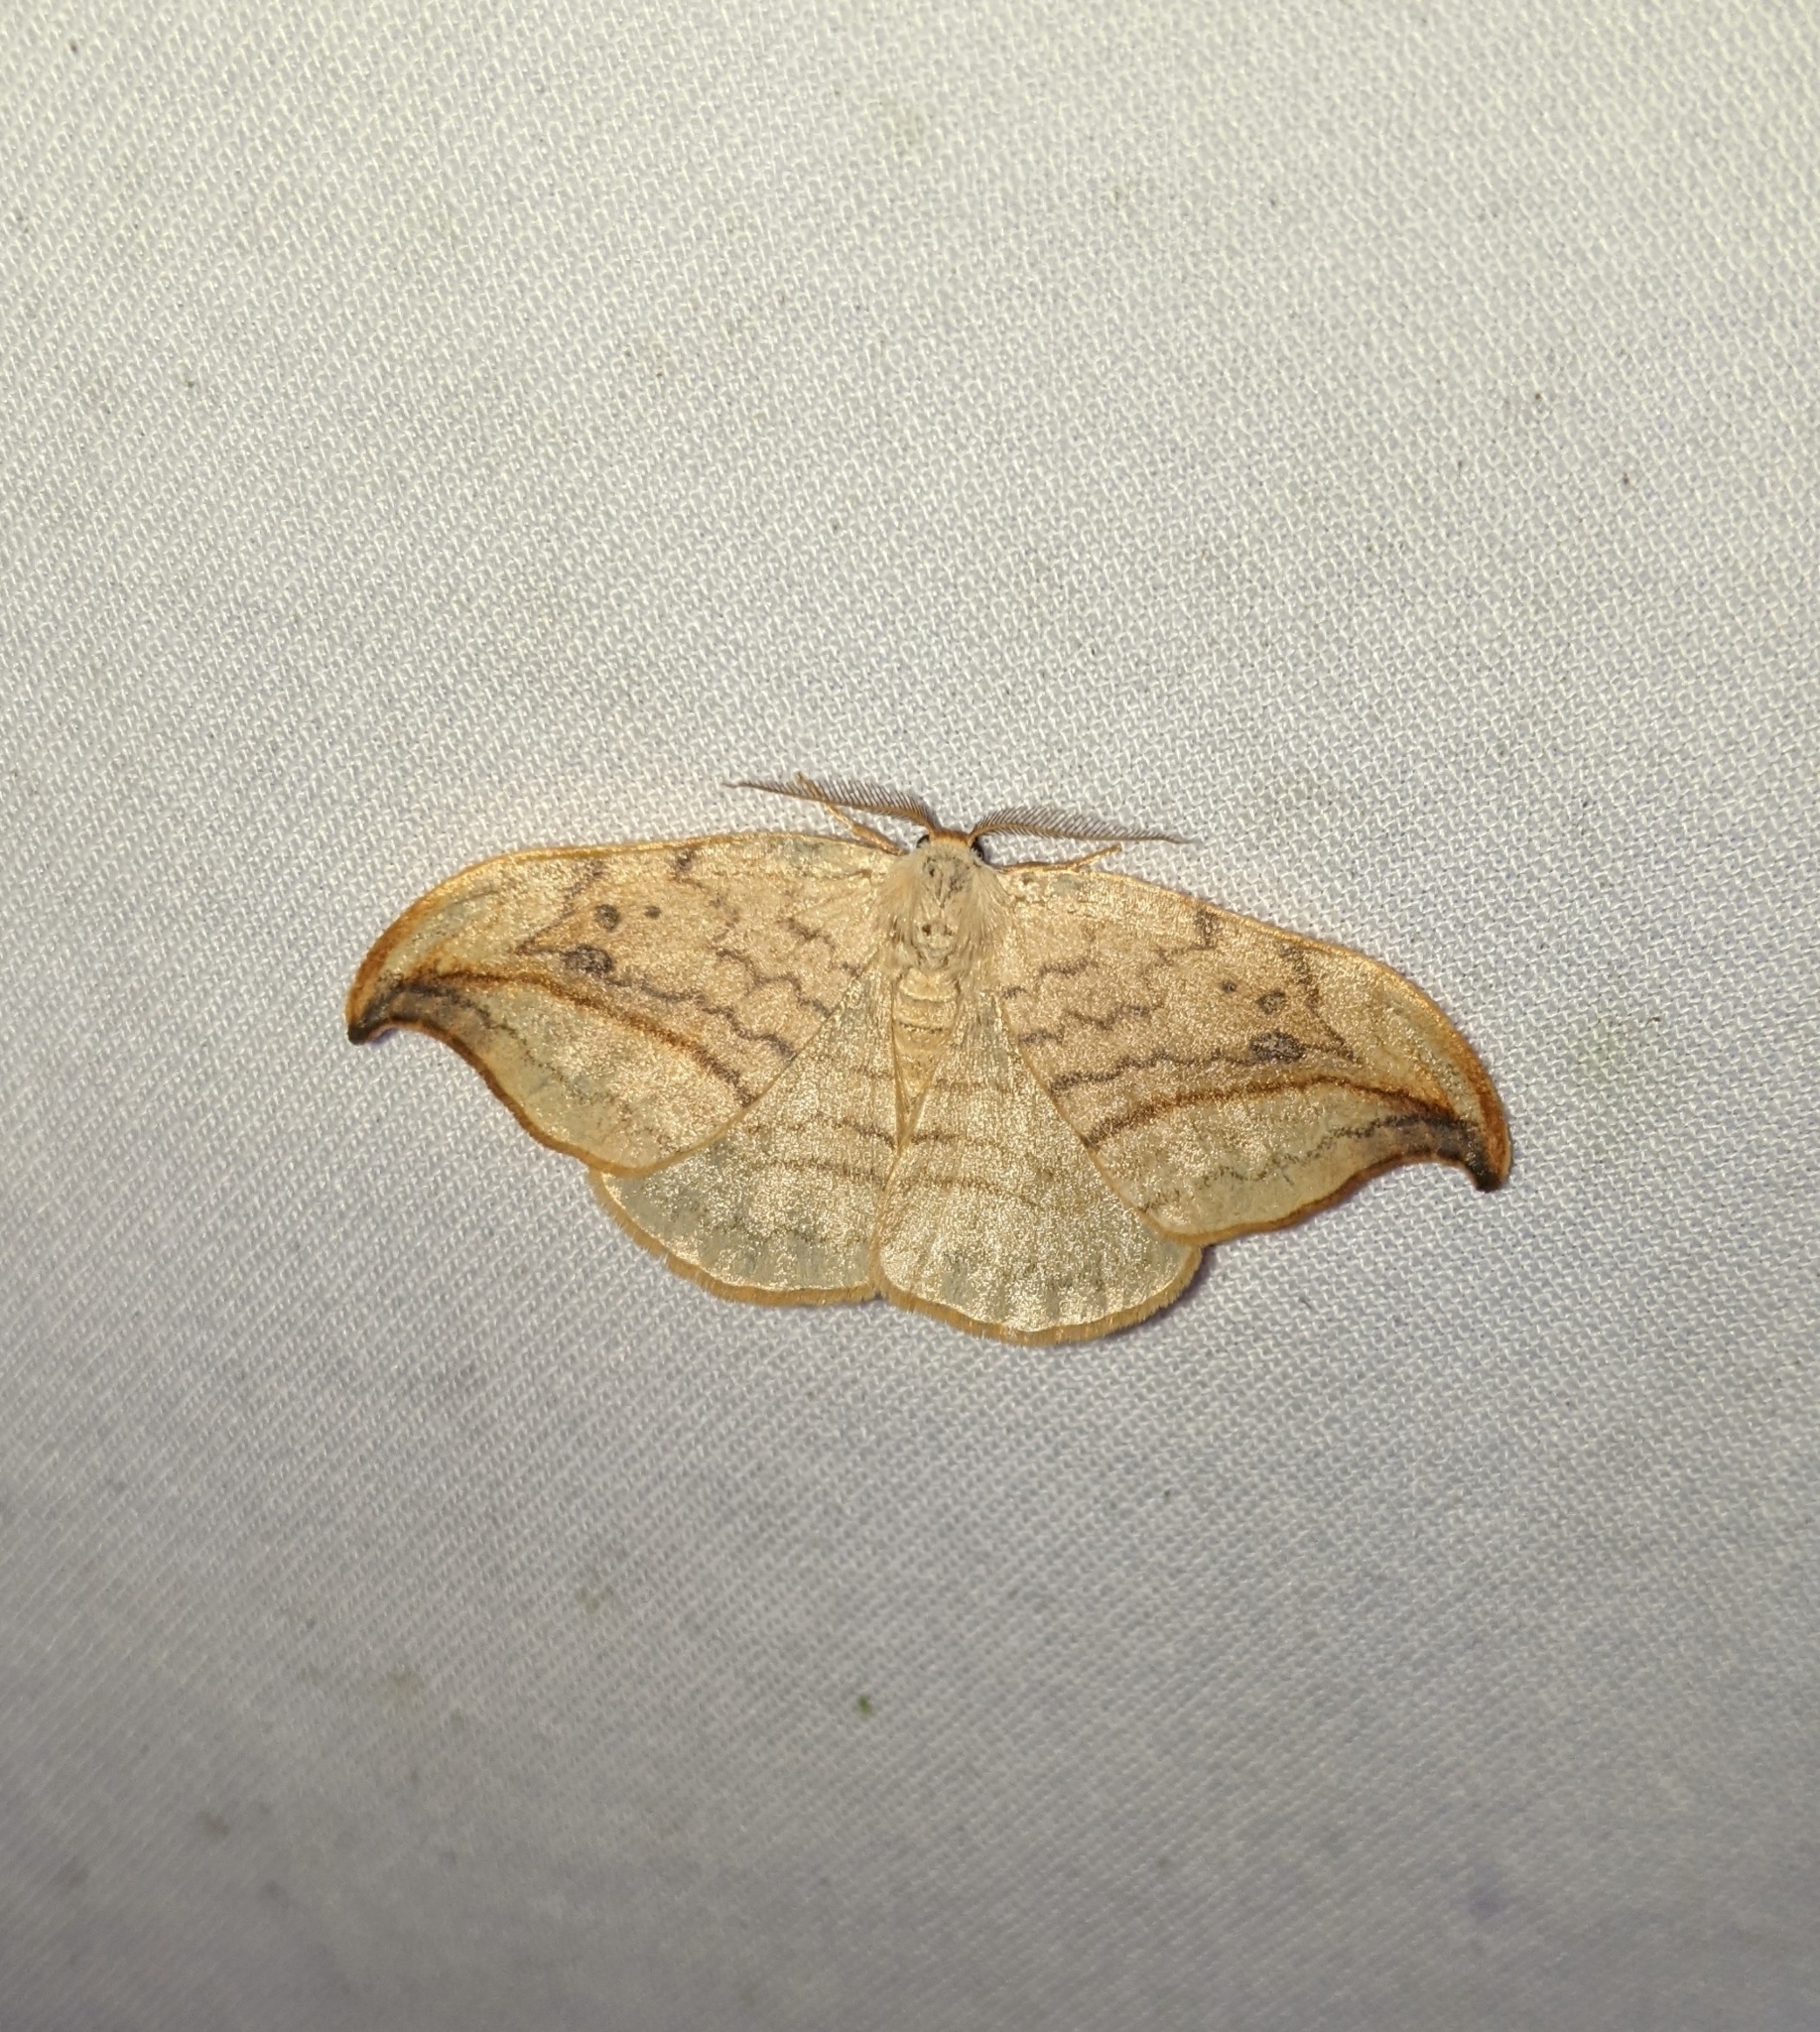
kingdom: Animalia
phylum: Arthropoda
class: Insecta
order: Lepidoptera
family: Drepanidae
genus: Drepana
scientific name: Drepana arcuata
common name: Arched hooktip moth
